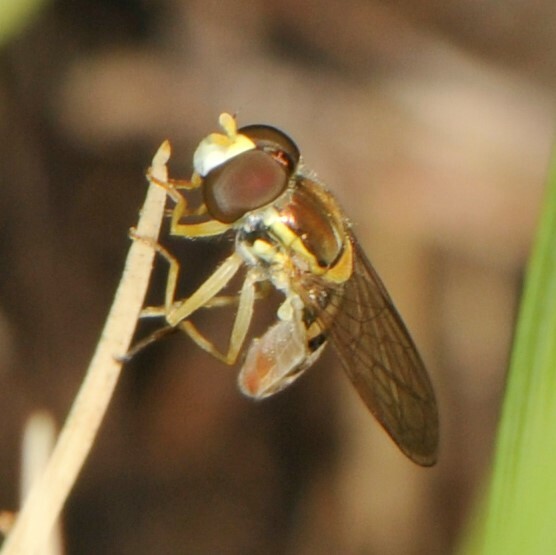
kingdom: Animalia
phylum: Arthropoda
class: Insecta
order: Diptera
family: Syrphidae
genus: Toxomerus
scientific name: Toxomerus marginatus
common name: Syrphid fly
